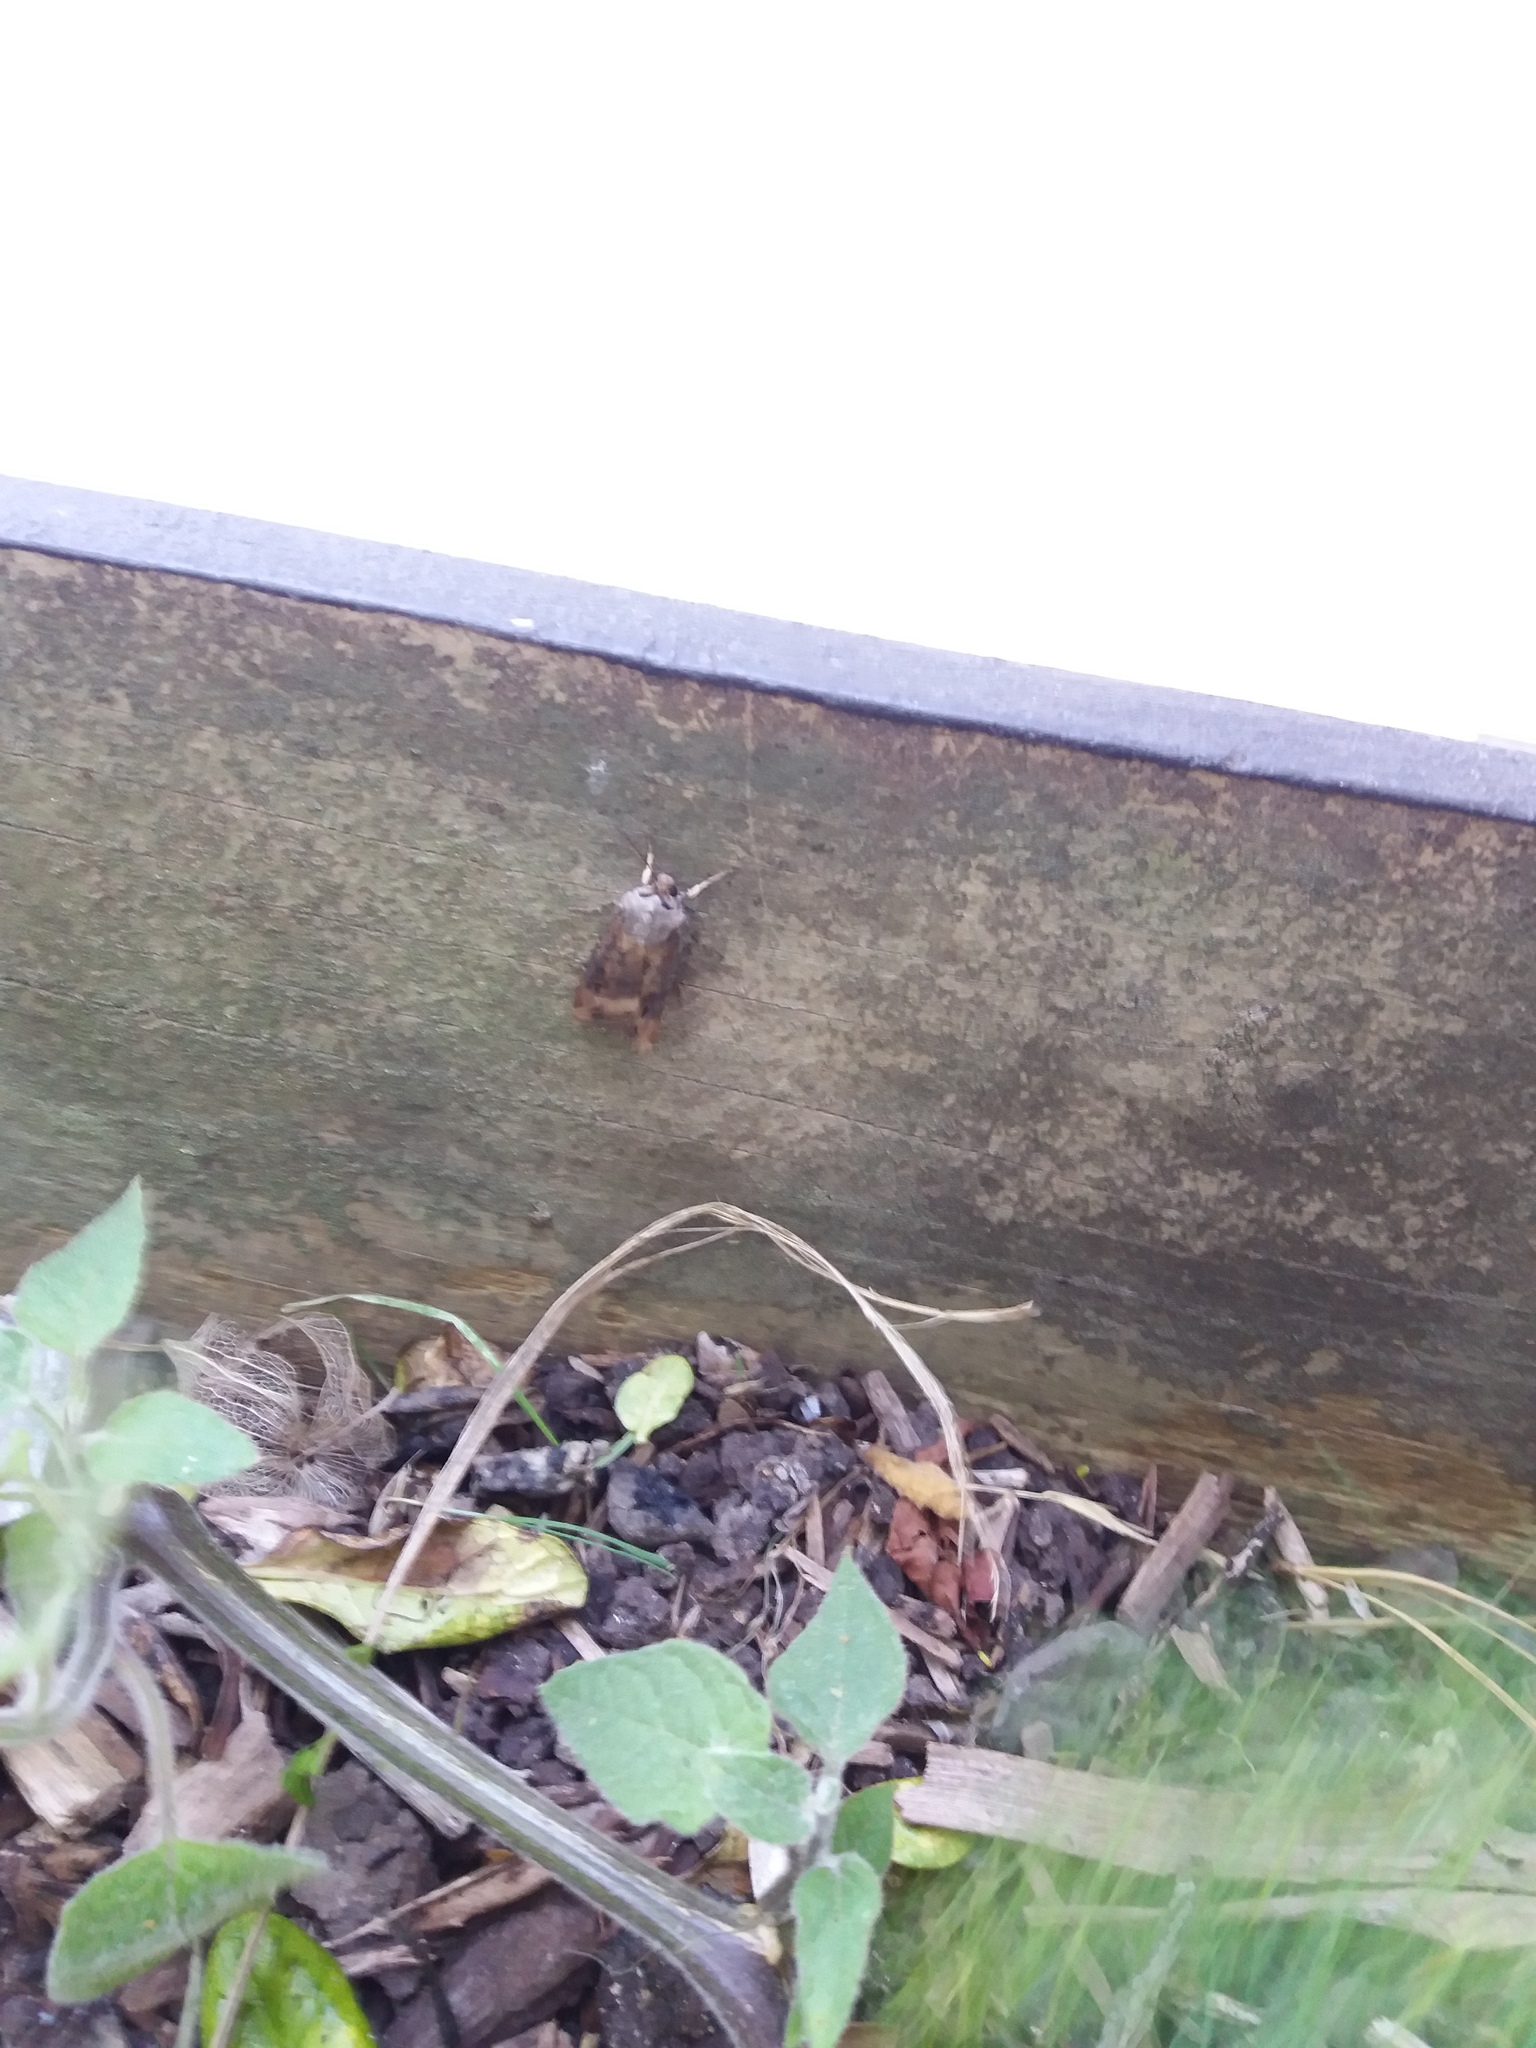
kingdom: Animalia
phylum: Arthropoda
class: Insecta
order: Lepidoptera
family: Noctuidae
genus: Agrotis
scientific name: Agrotis ipsilon
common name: Dark sword-grass
